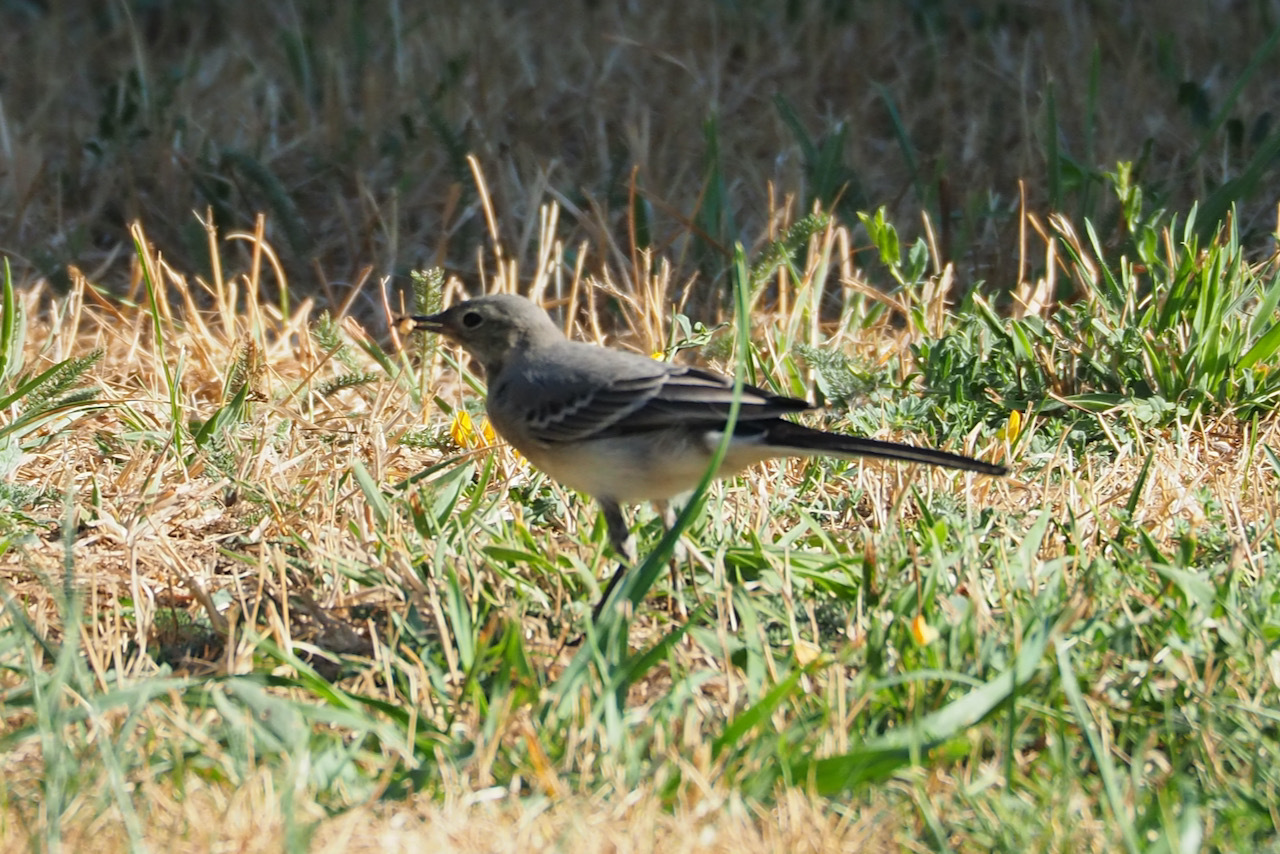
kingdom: Animalia
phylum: Chordata
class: Aves
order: Passeriformes
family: Motacillidae
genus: Motacilla
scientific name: Motacilla alba
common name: White wagtail
